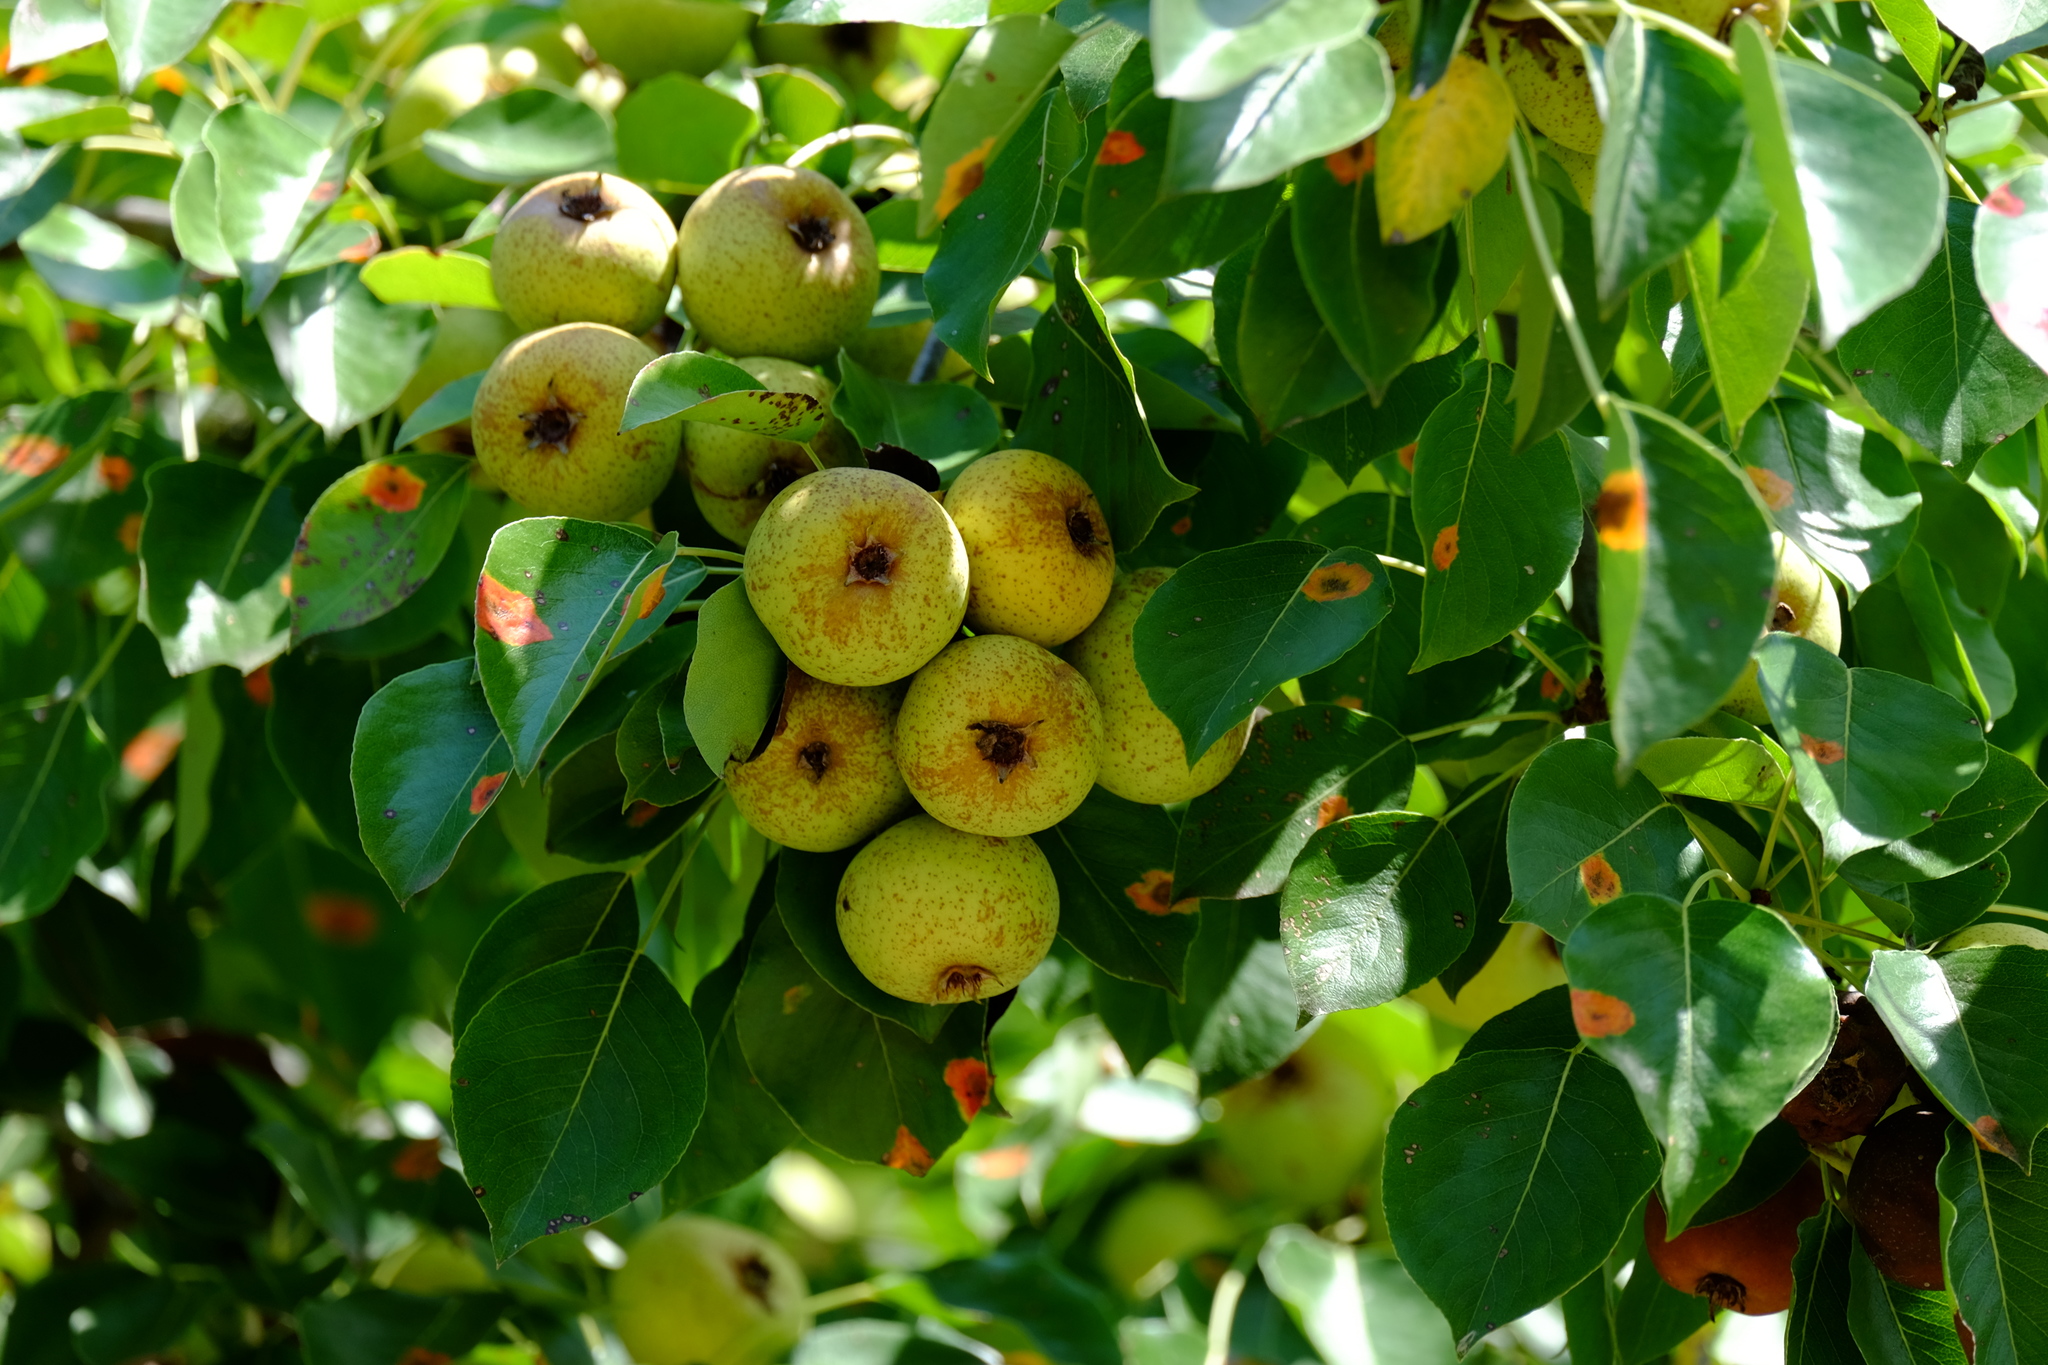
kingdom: Plantae
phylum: Tracheophyta
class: Magnoliopsida
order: Rosales
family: Rosaceae
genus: Pyrus
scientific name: Pyrus communis
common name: Pear
